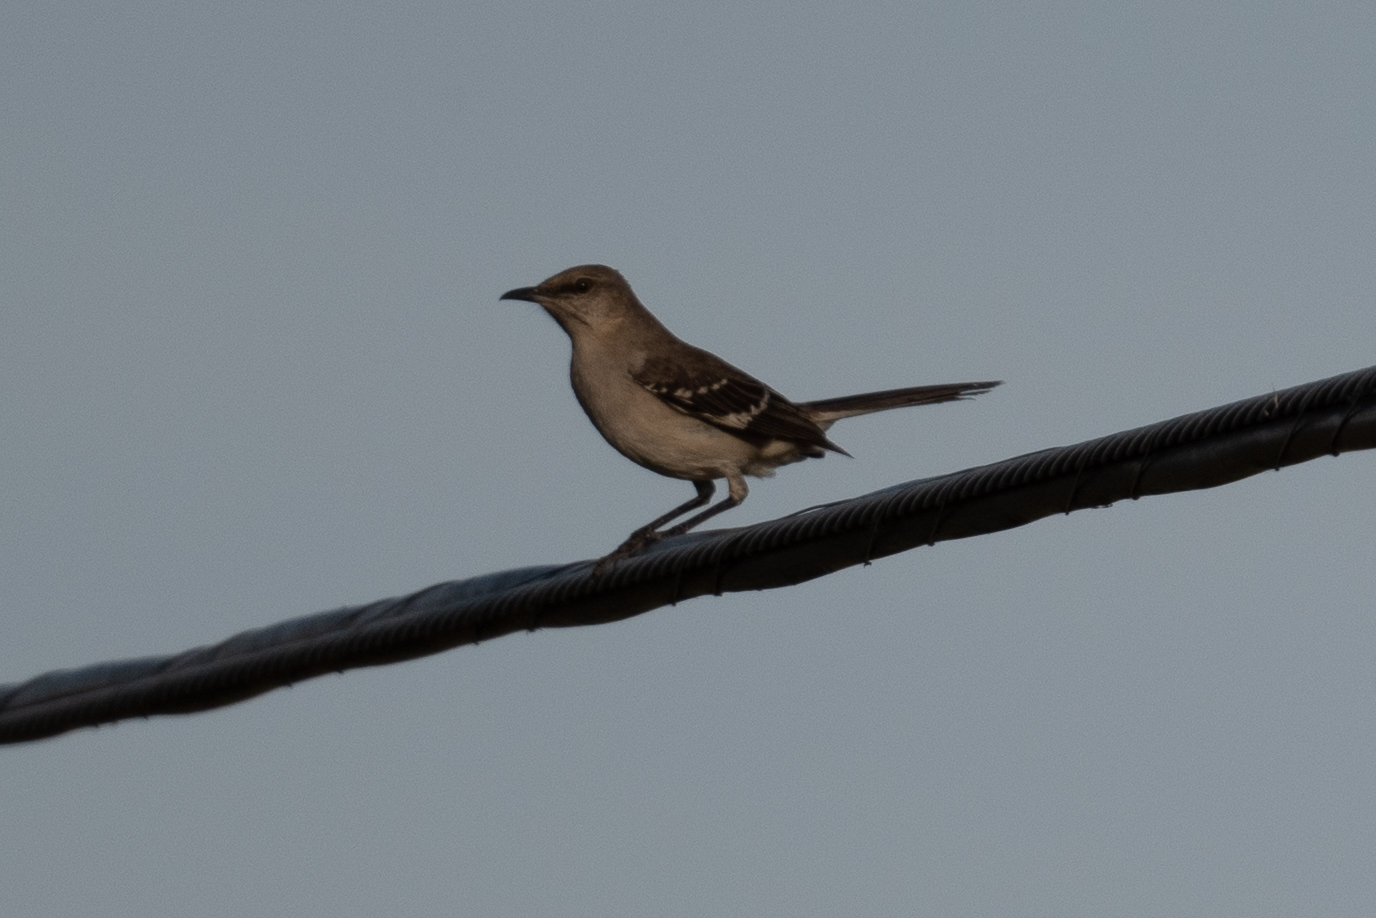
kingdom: Animalia
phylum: Chordata
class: Aves
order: Passeriformes
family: Mimidae
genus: Mimus
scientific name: Mimus polyglottos
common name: Northern mockingbird
